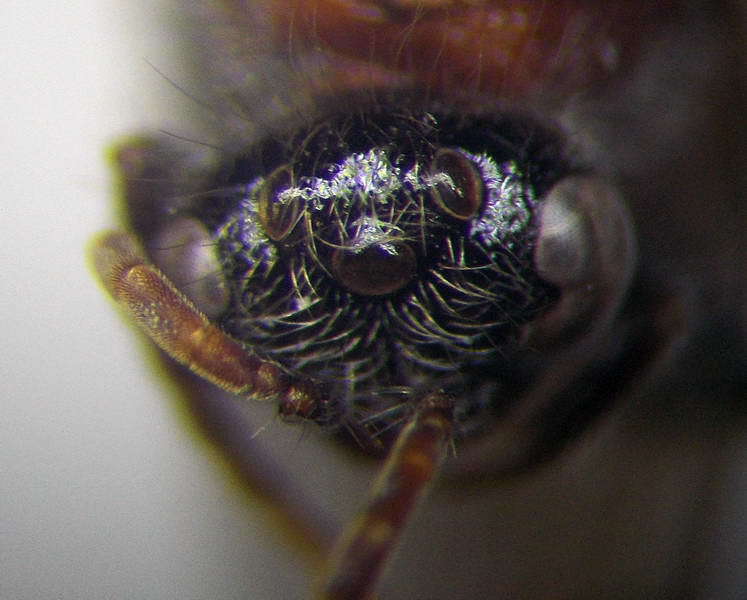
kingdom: Animalia
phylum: Arthropoda
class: Insecta
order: Hymenoptera
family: Mutillidae
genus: Smicromyrme
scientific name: Smicromyrme rufipes
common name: Small velvet ant
